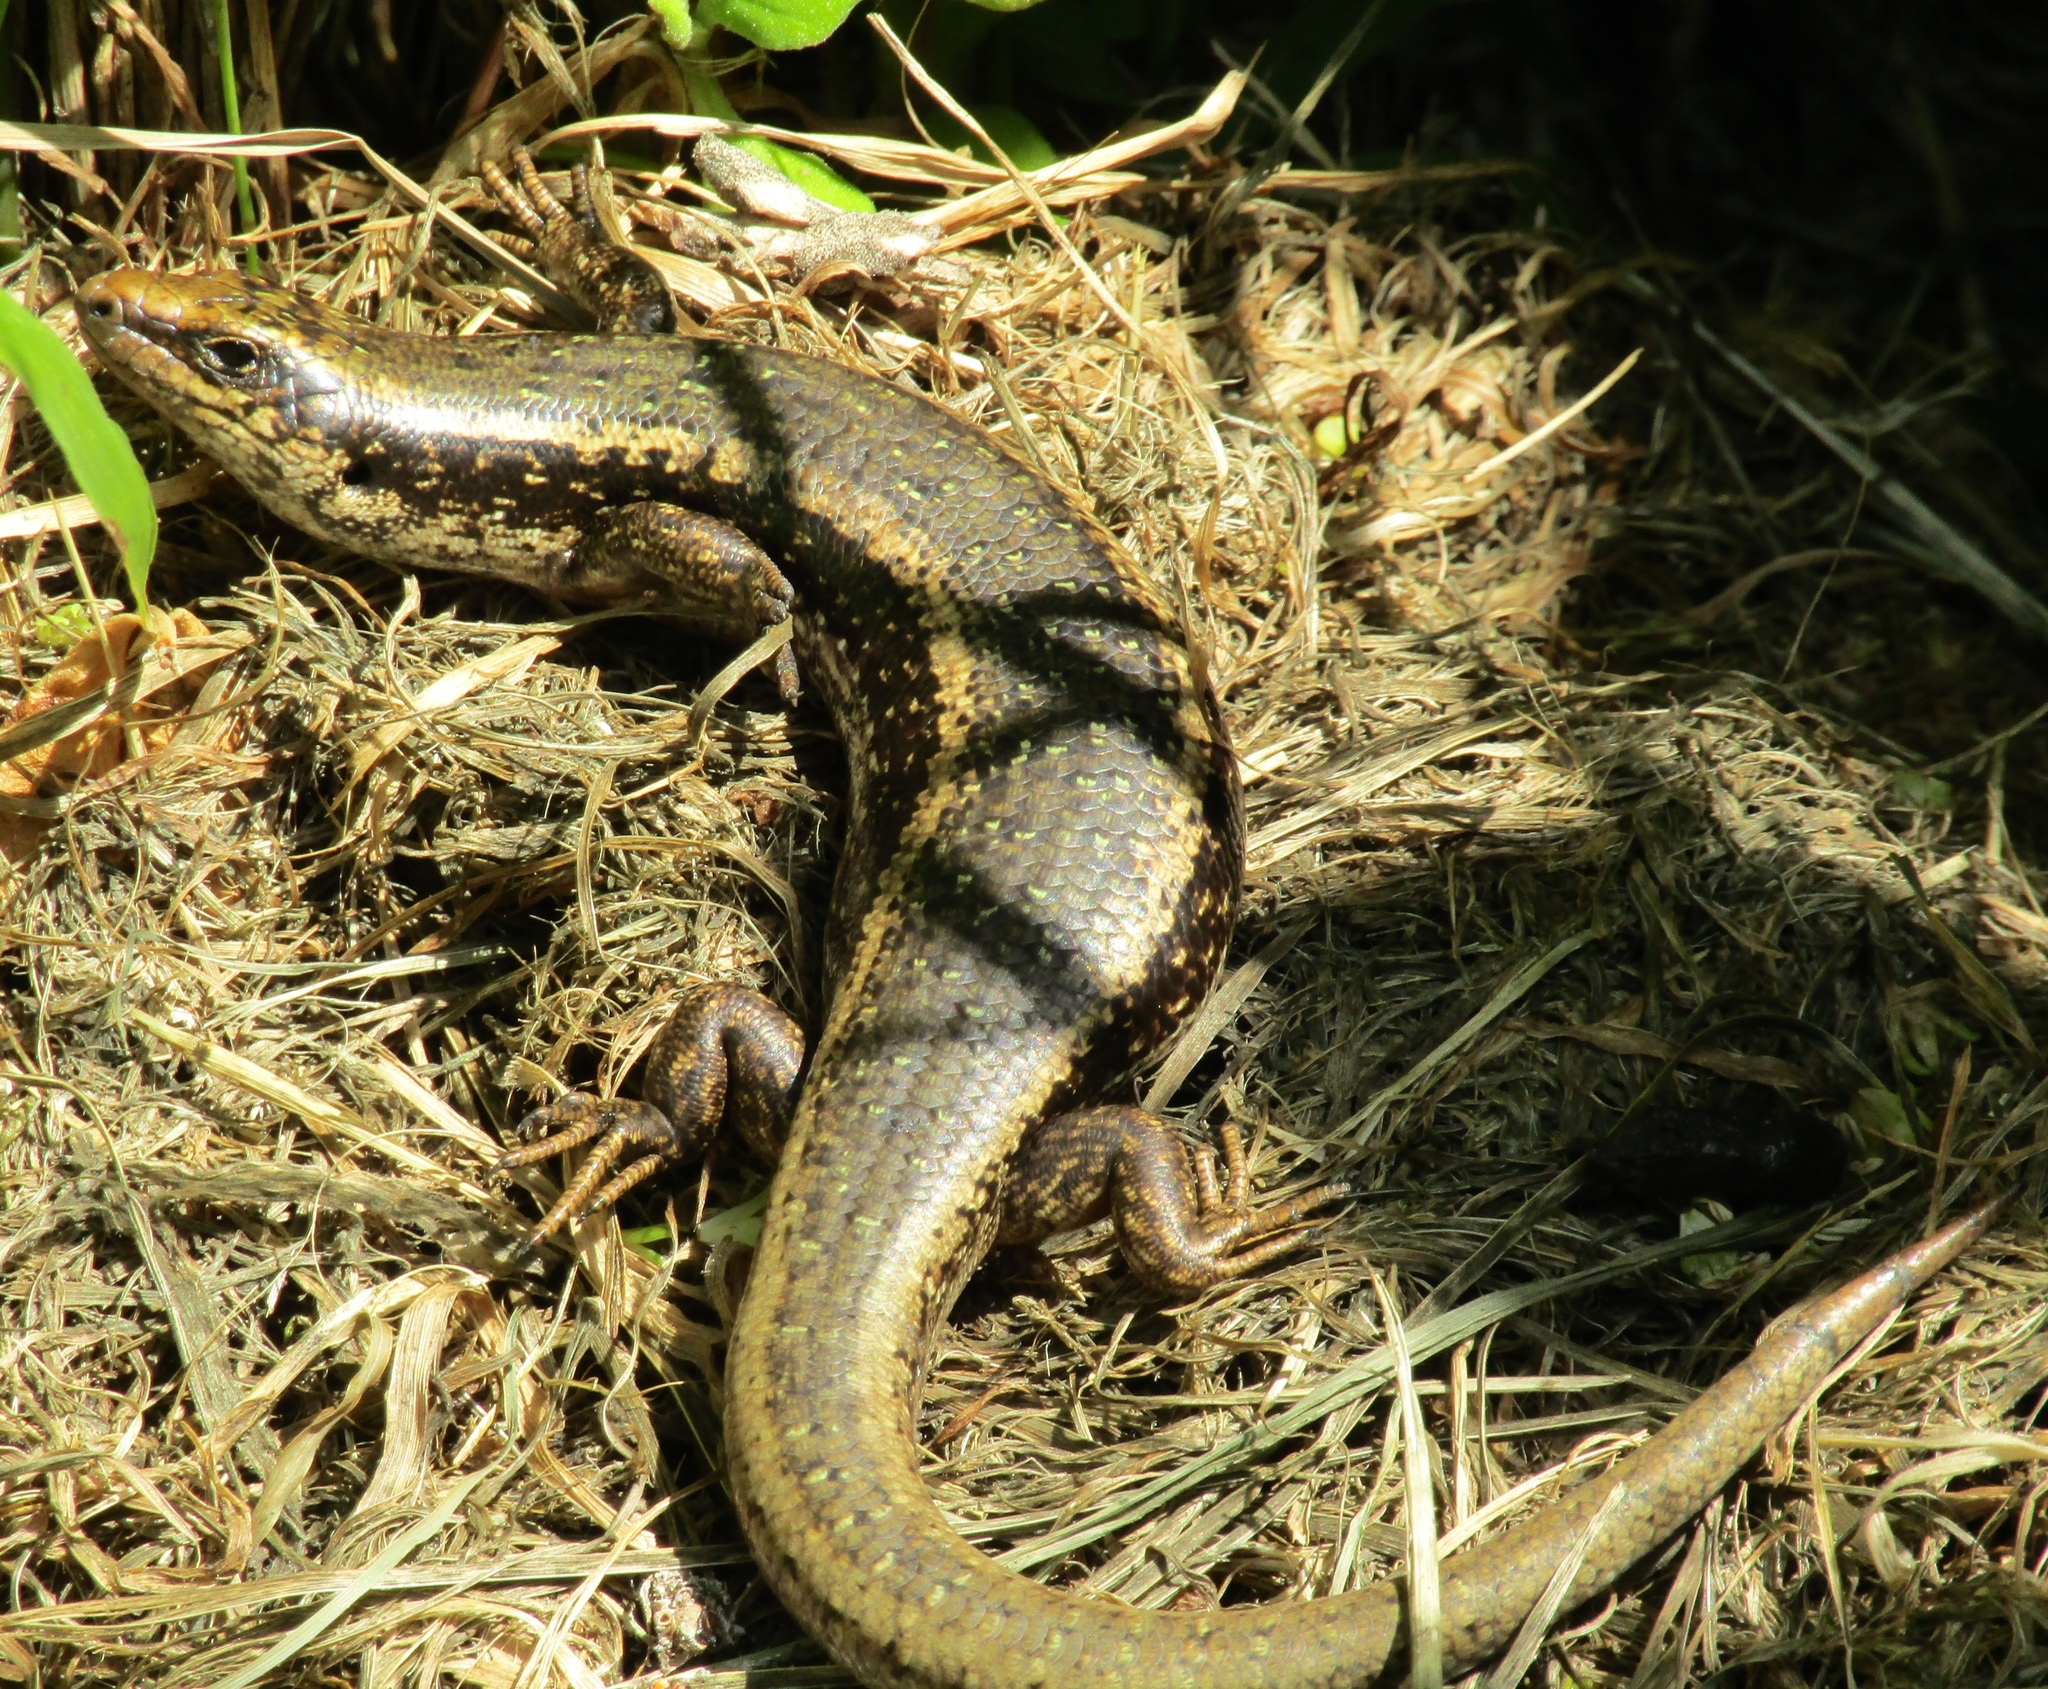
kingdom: Animalia
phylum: Chordata
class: Squamata
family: Scincidae
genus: Oligosoma
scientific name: Oligosoma kokowai
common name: Northern spotted skink
